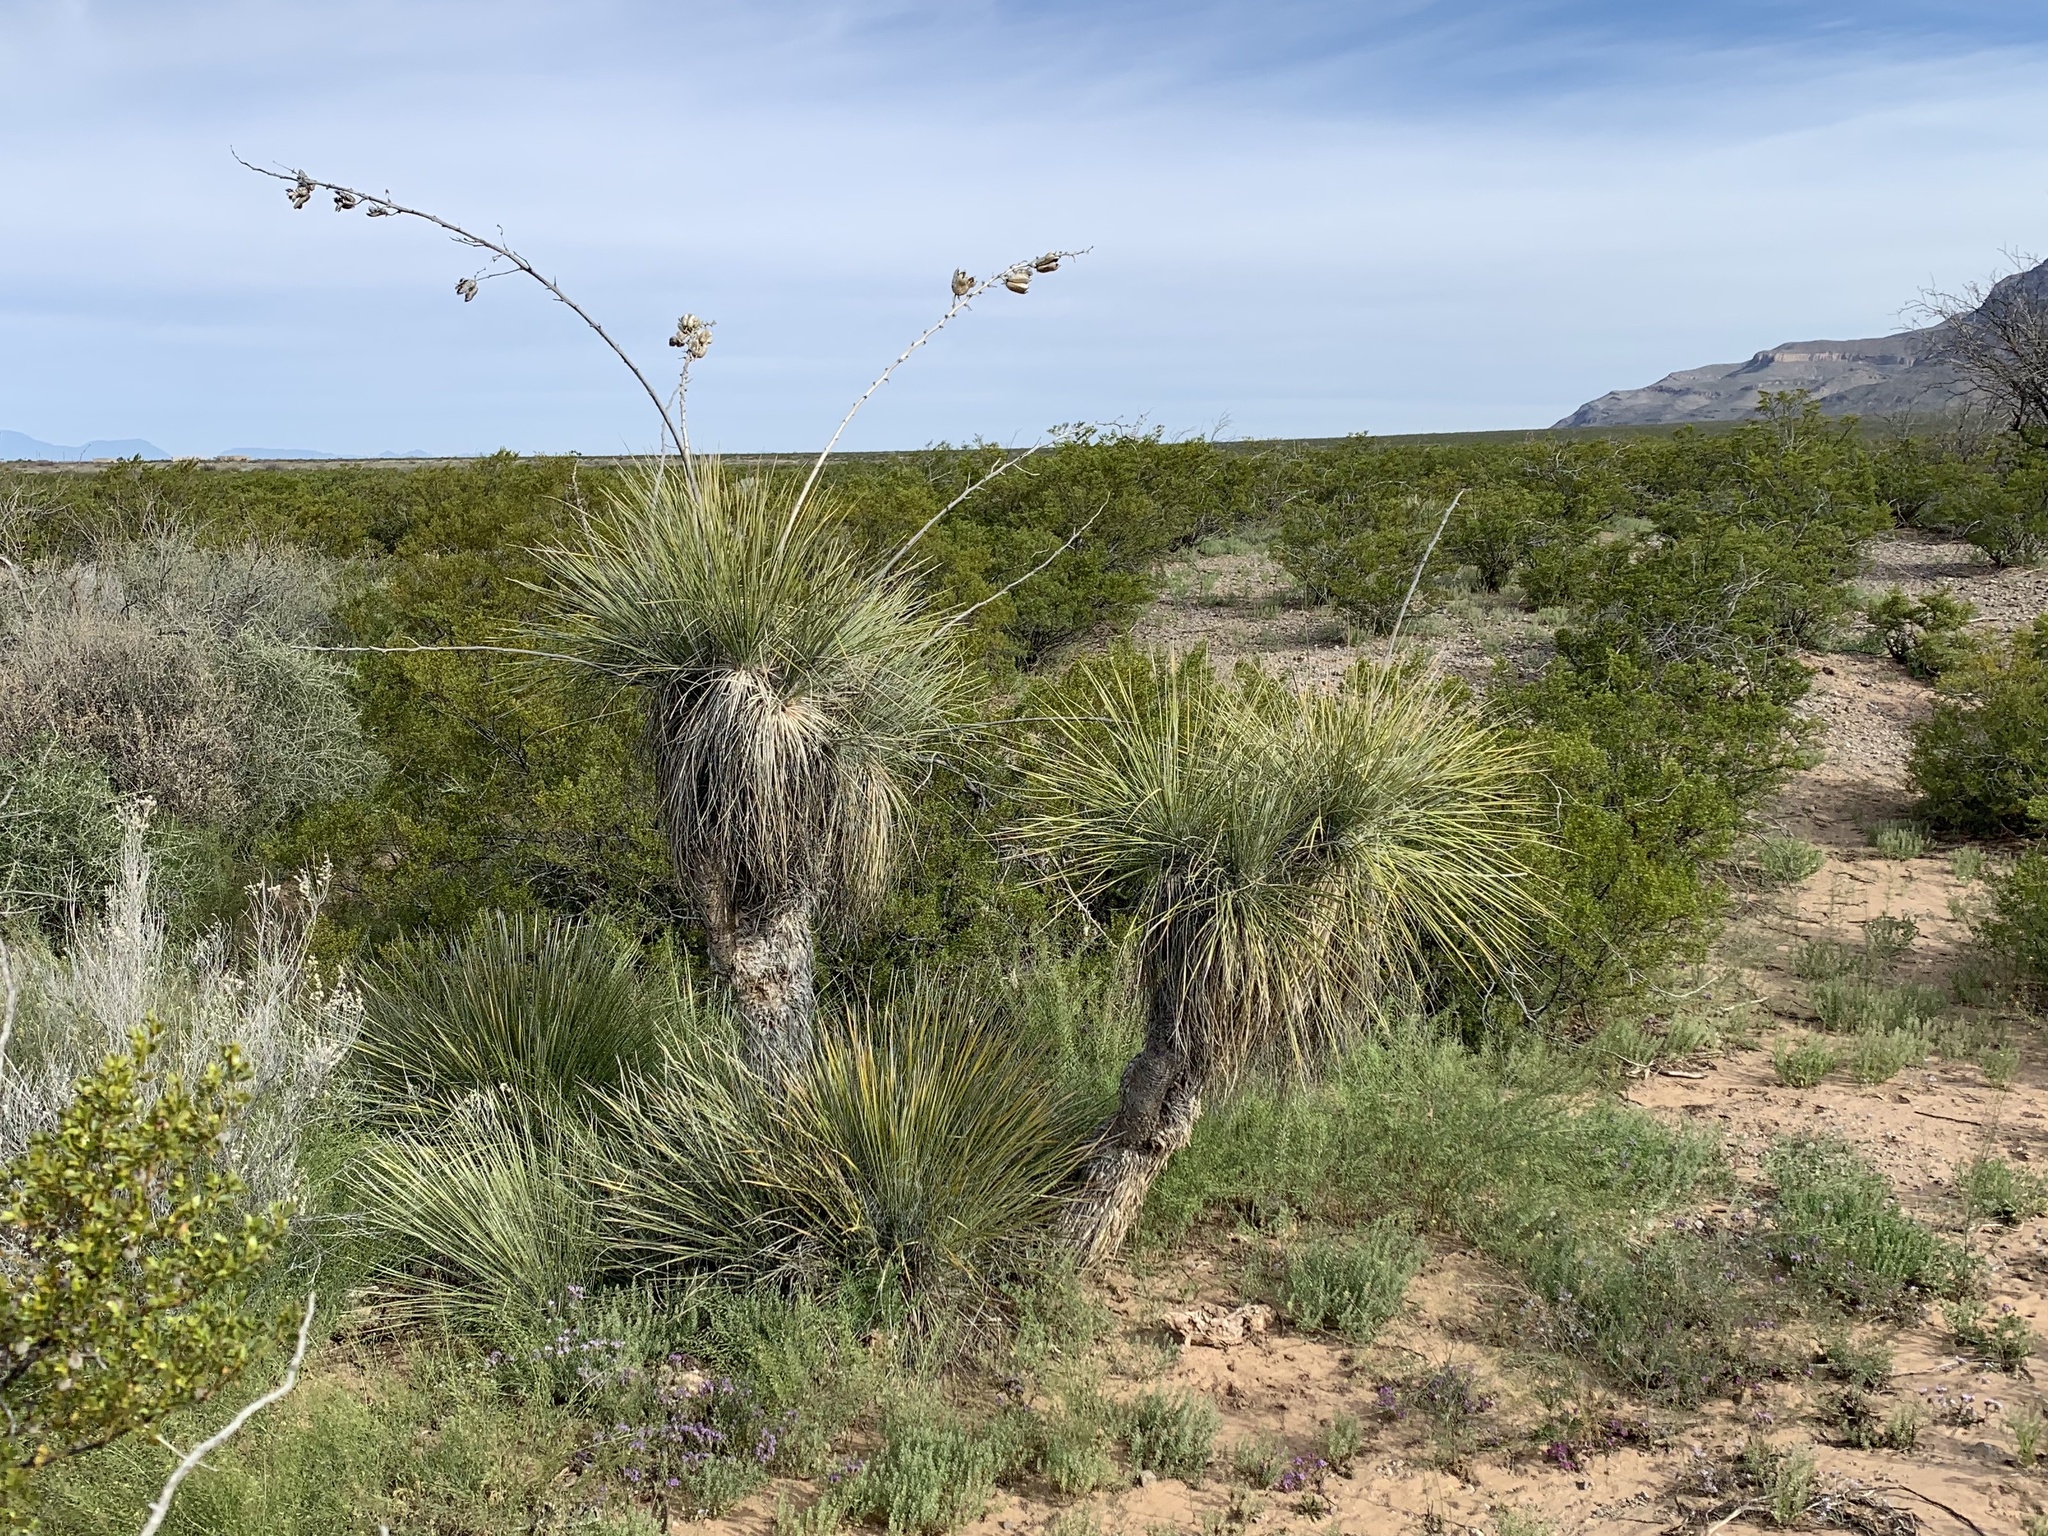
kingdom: Plantae
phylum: Tracheophyta
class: Liliopsida
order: Asparagales
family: Asparagaceae
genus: Yucca
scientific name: Yucca elata
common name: Palmella
